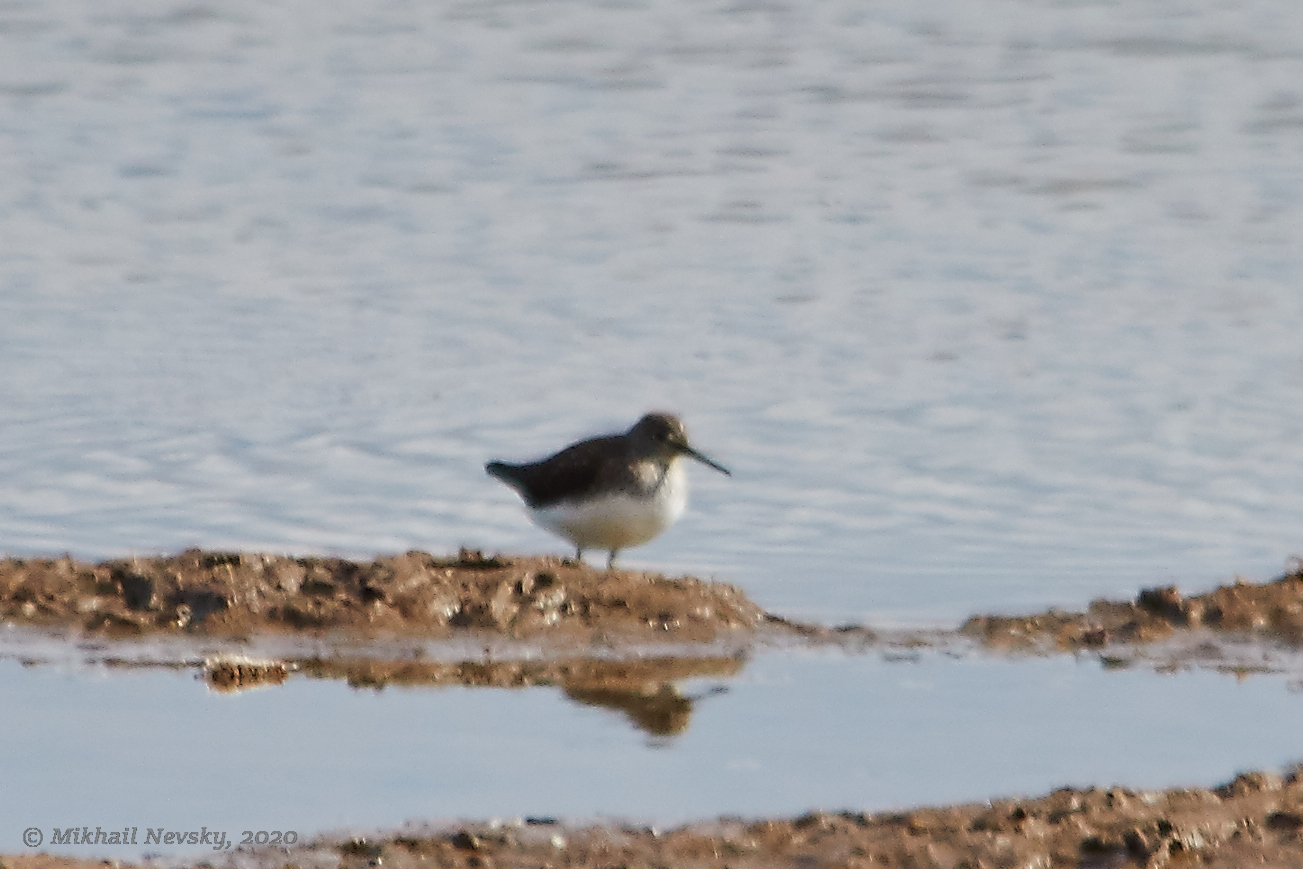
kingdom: Animalia
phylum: Chordata
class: Aves
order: Charadriiformes
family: Scolopacidae
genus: Tringa
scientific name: Tringa ochropus
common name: Green sandpiper
